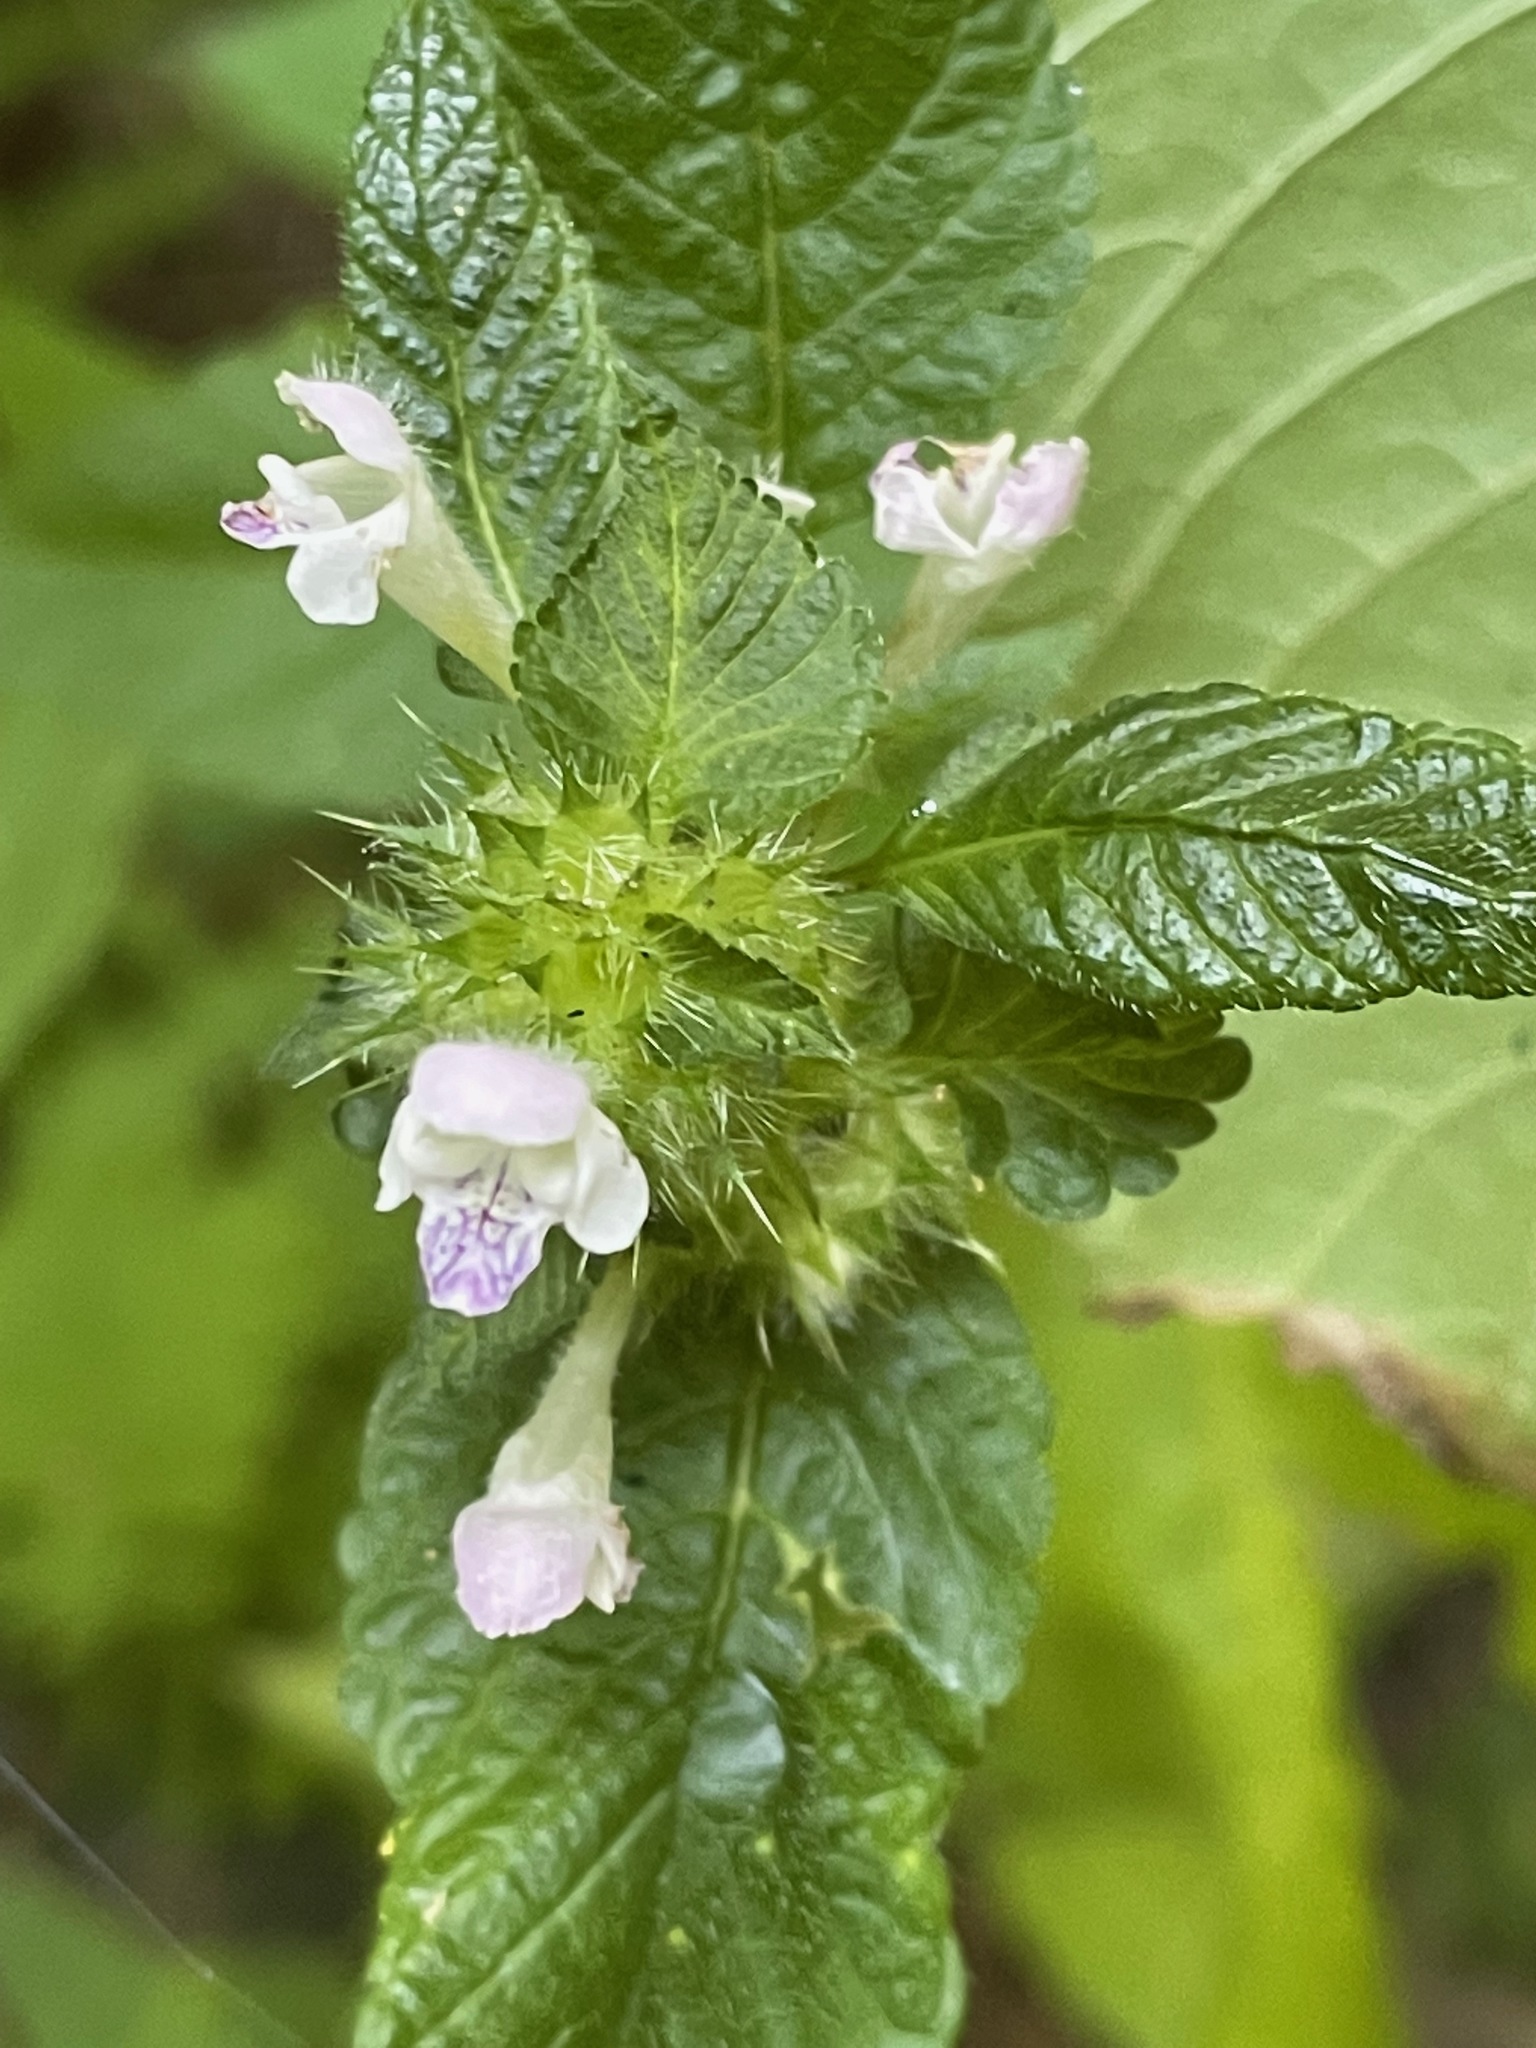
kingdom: Plantae
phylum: Tracheophyta
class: Magnoliopsida
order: Lamiales
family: Lamiaceae
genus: Galeopsis
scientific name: Galeopsis tetrahit
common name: Common hemp-nettle
